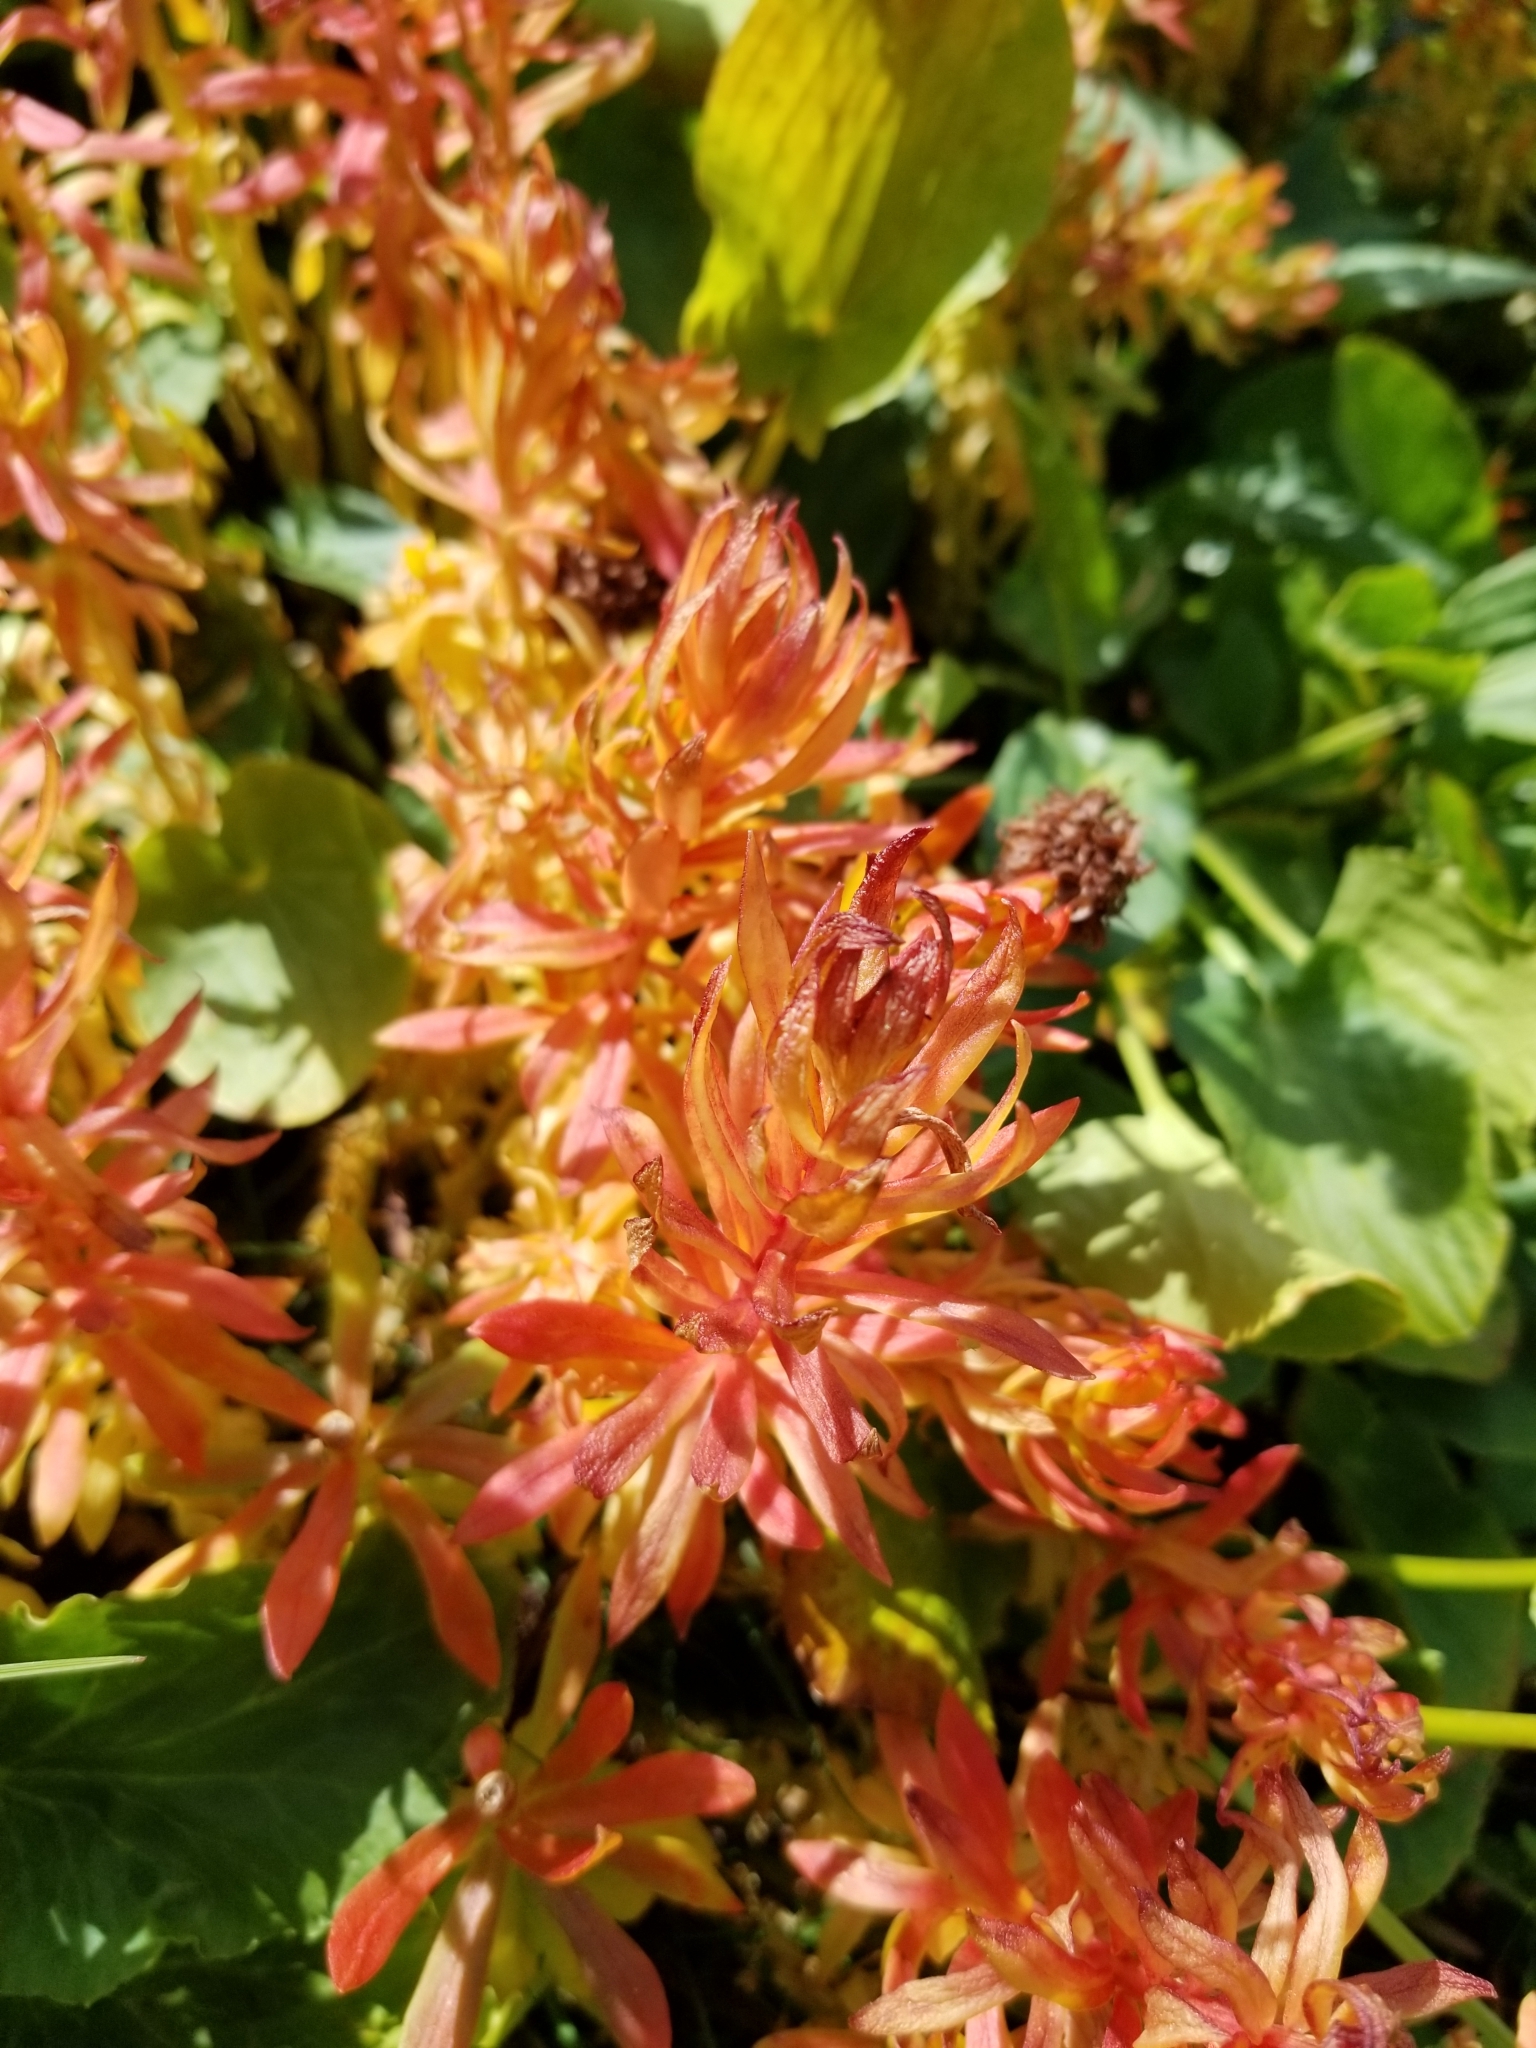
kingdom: Plantae
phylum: Tracheophyta
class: Magnoliopsida
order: Saxifragales
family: Crassulaceae
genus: Rhodiola
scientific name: Rhodiola rhodantha
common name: Red orpine
